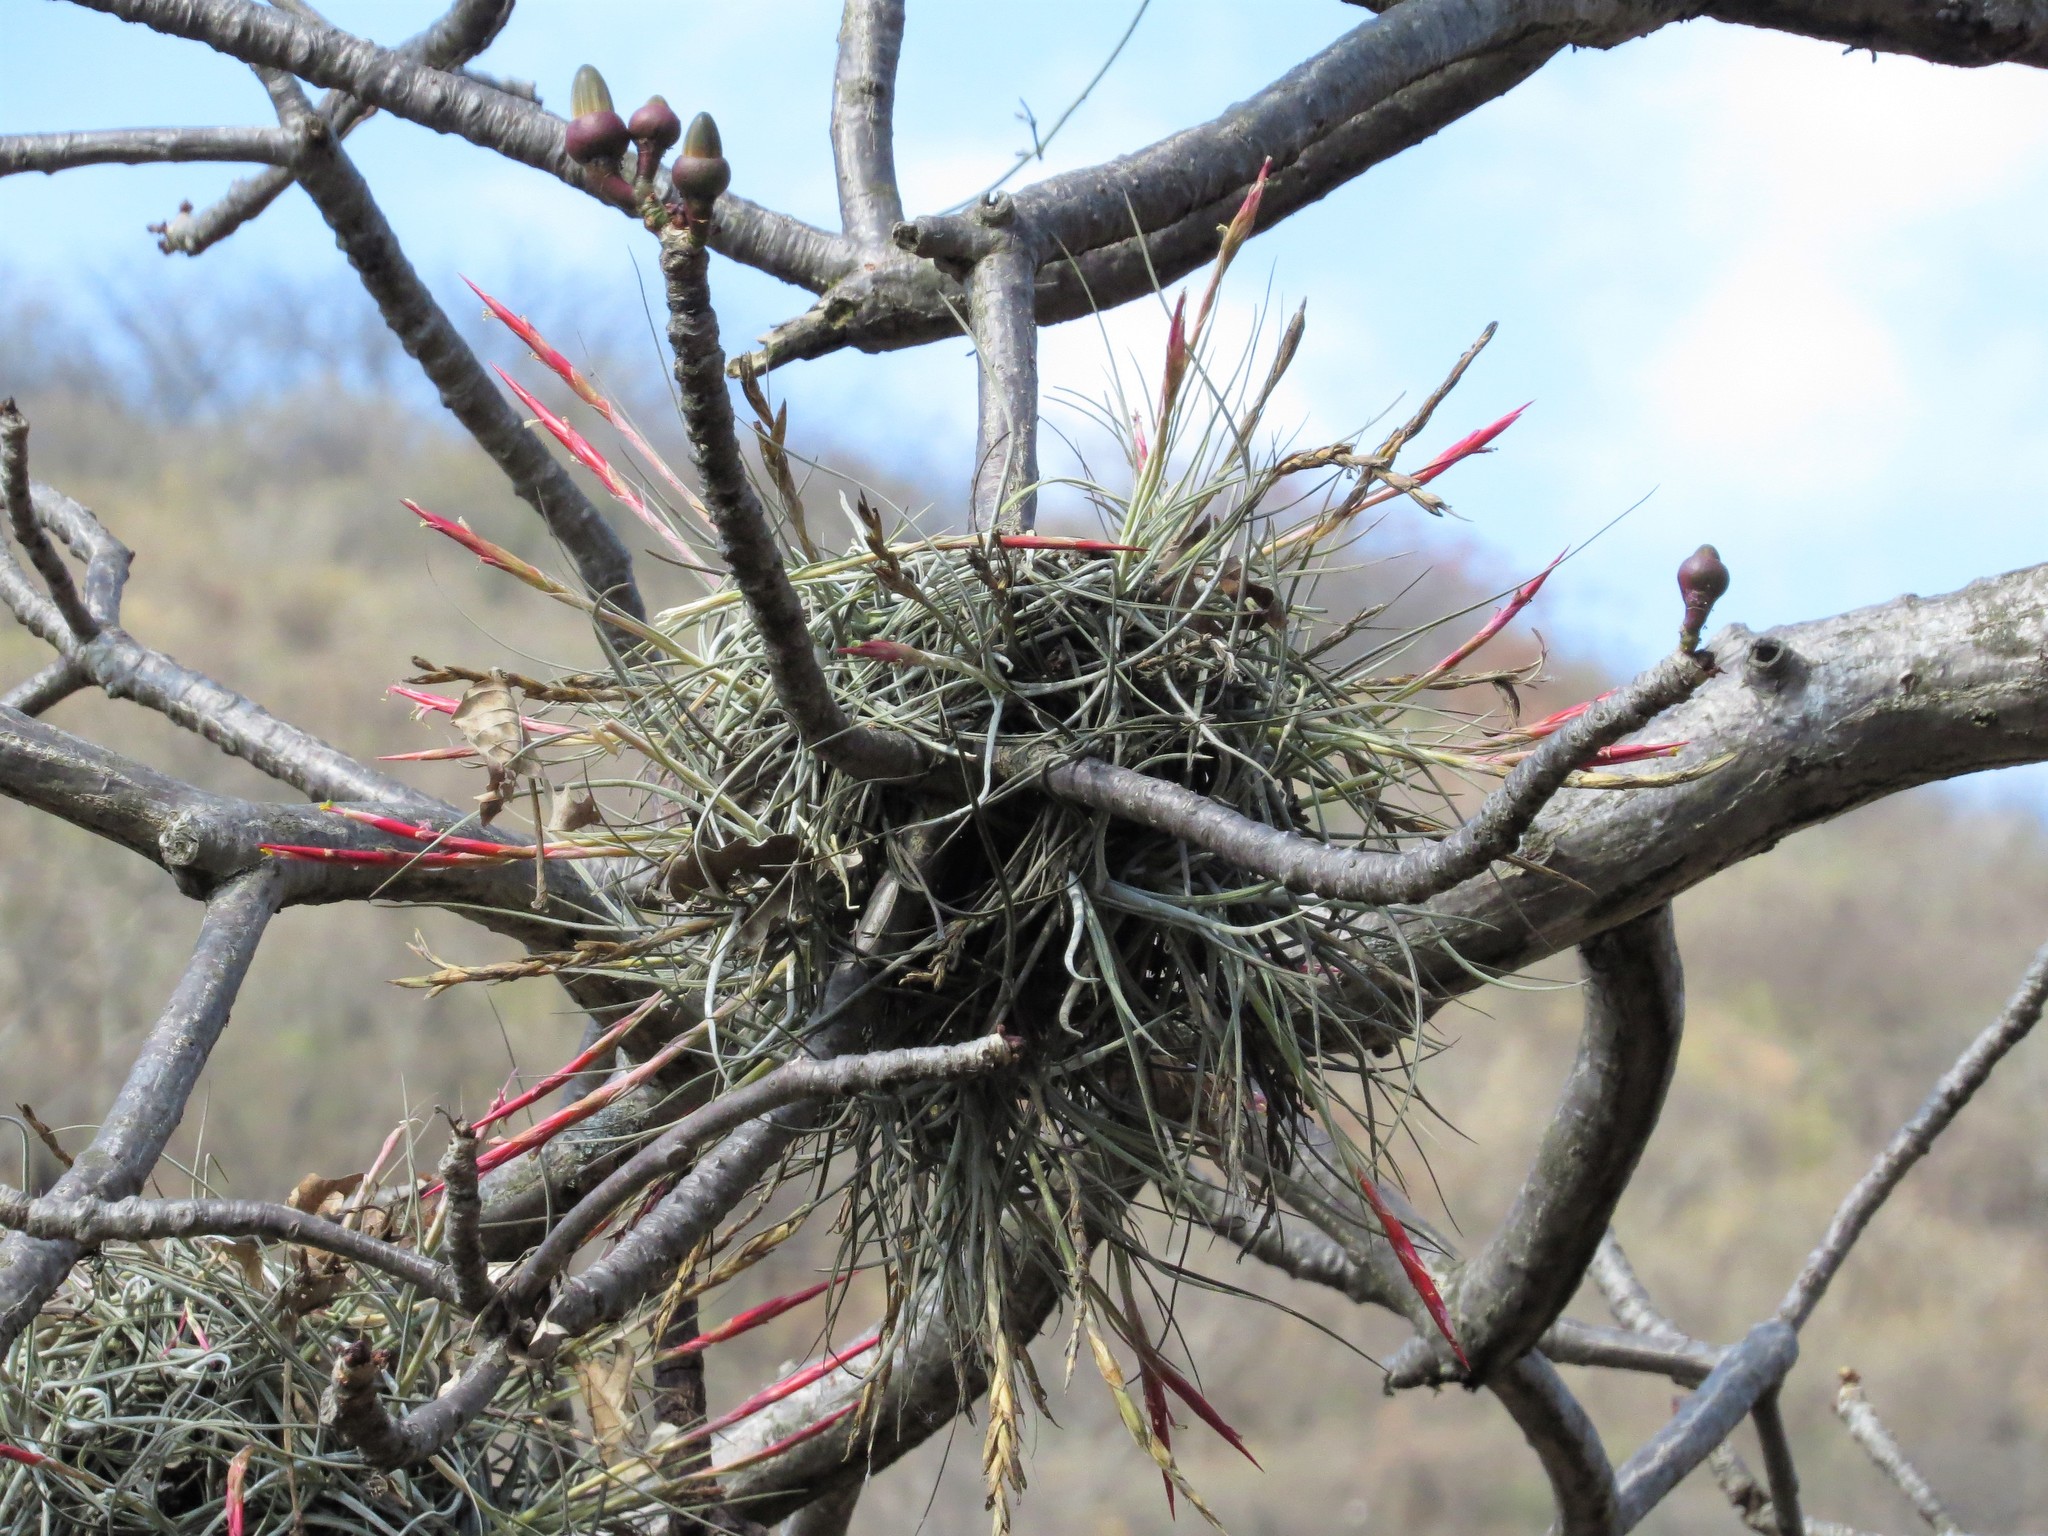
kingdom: Plantae
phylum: Tracheophyta
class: Liliopsida
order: Poales
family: Bromeliaceae
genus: Tillandsia
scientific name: Tillandsia schiedeana
